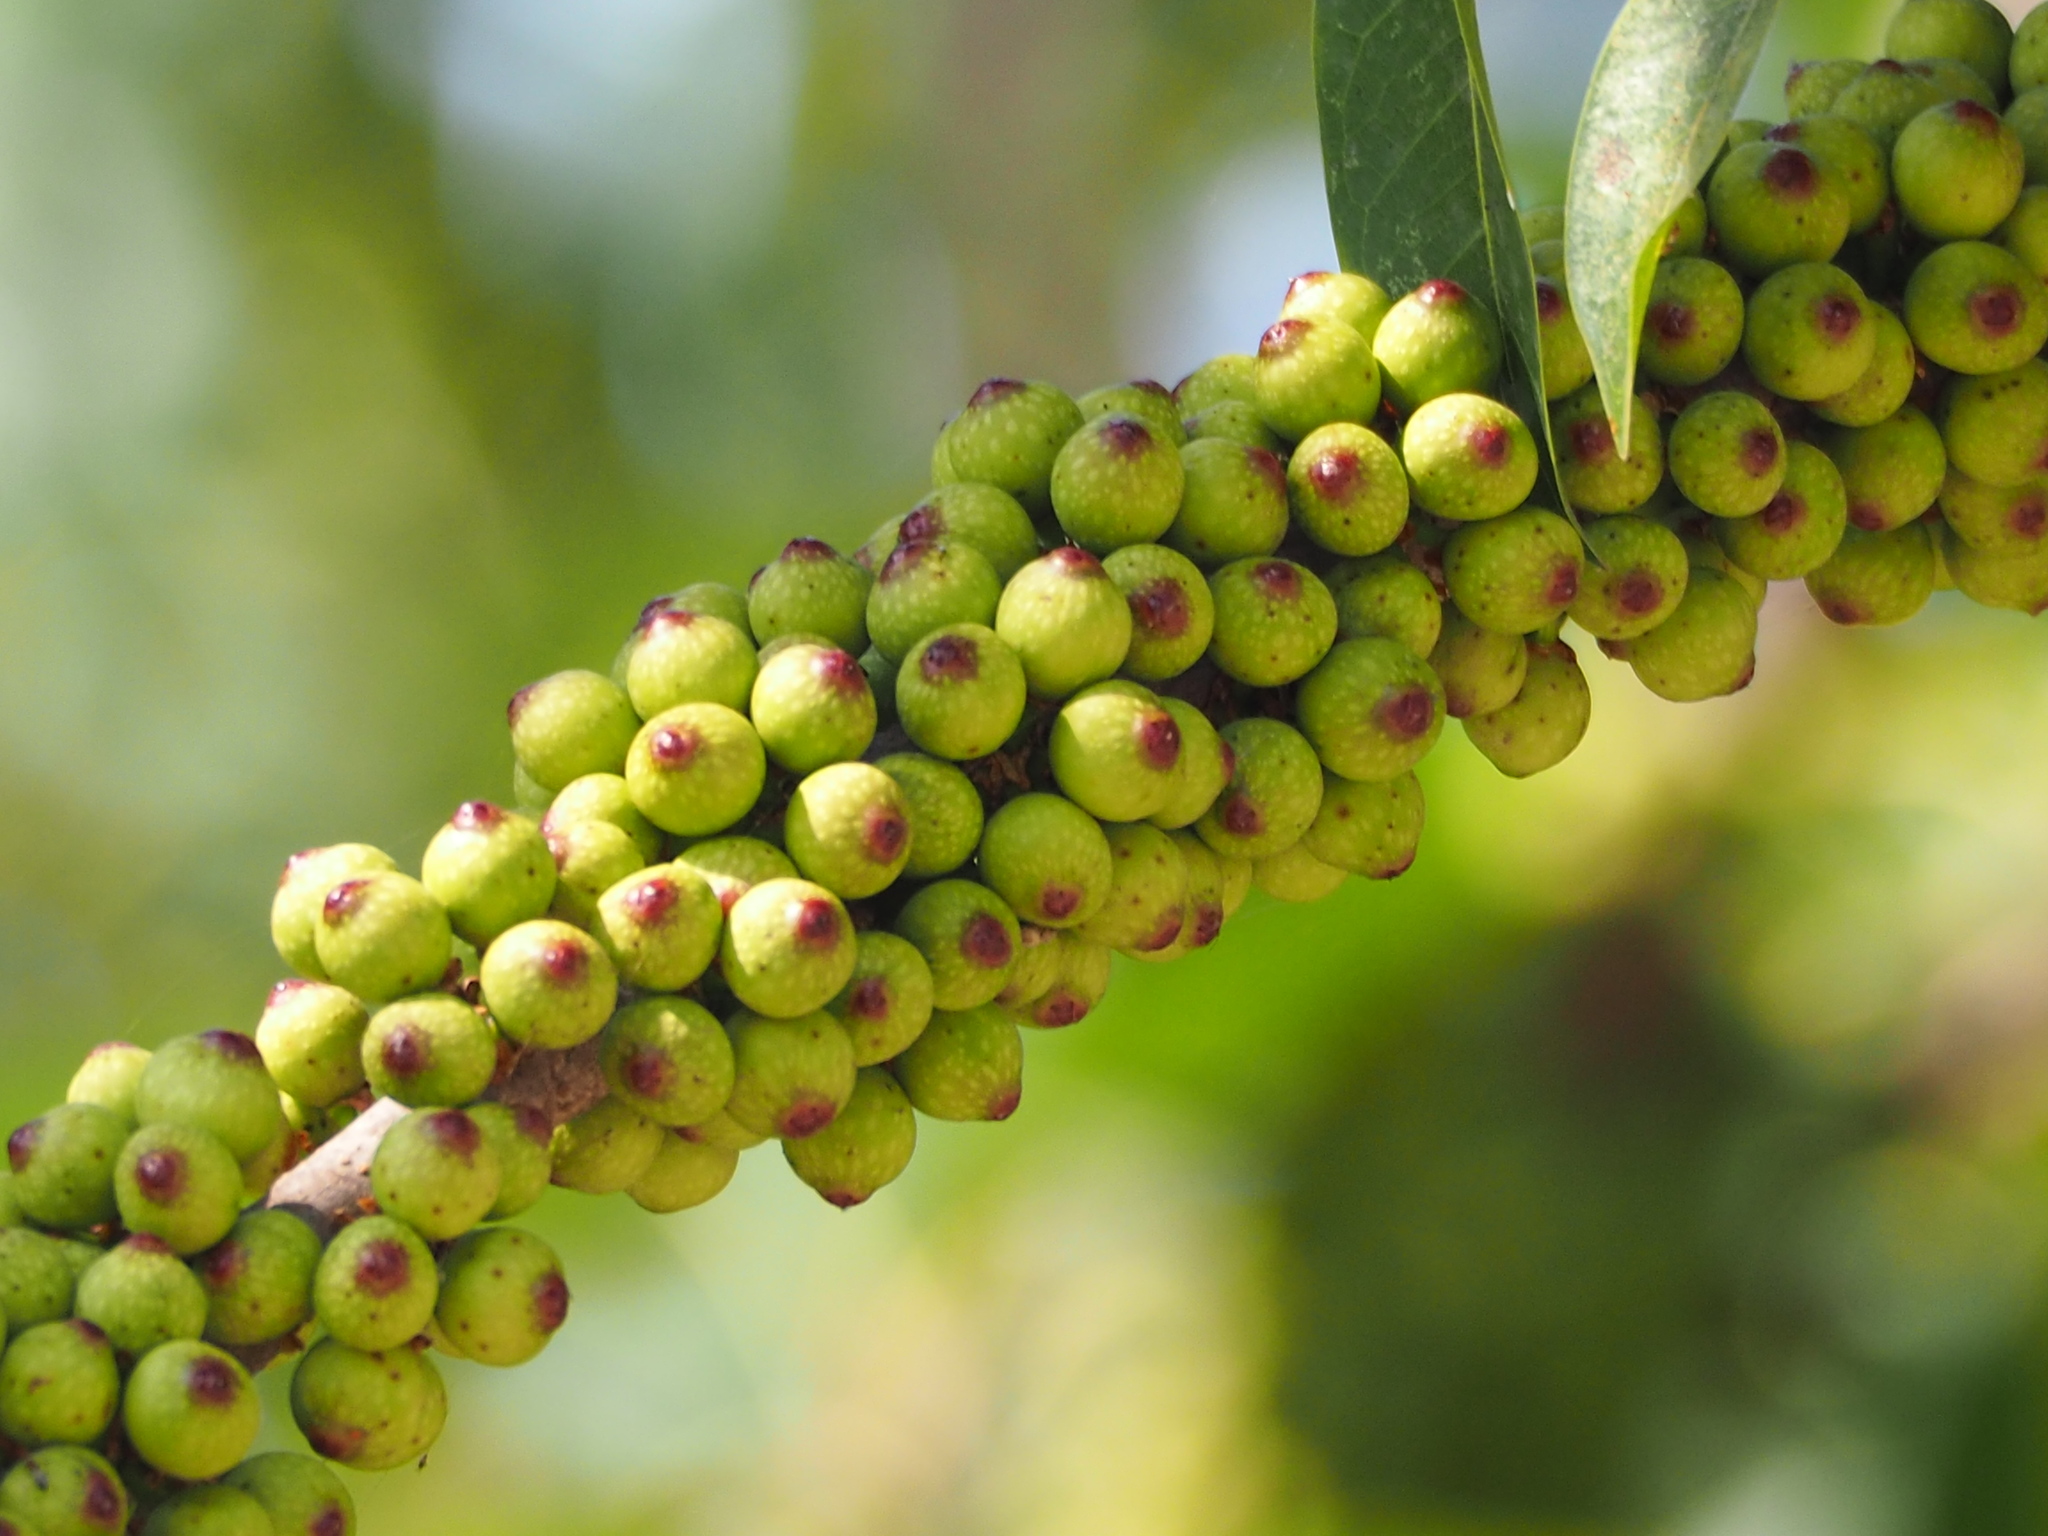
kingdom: Plantae
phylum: Tracheophyta
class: Magnoliopsida
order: Rosales
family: Moraceae
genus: Ficus
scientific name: Ficus subpisocarpa
